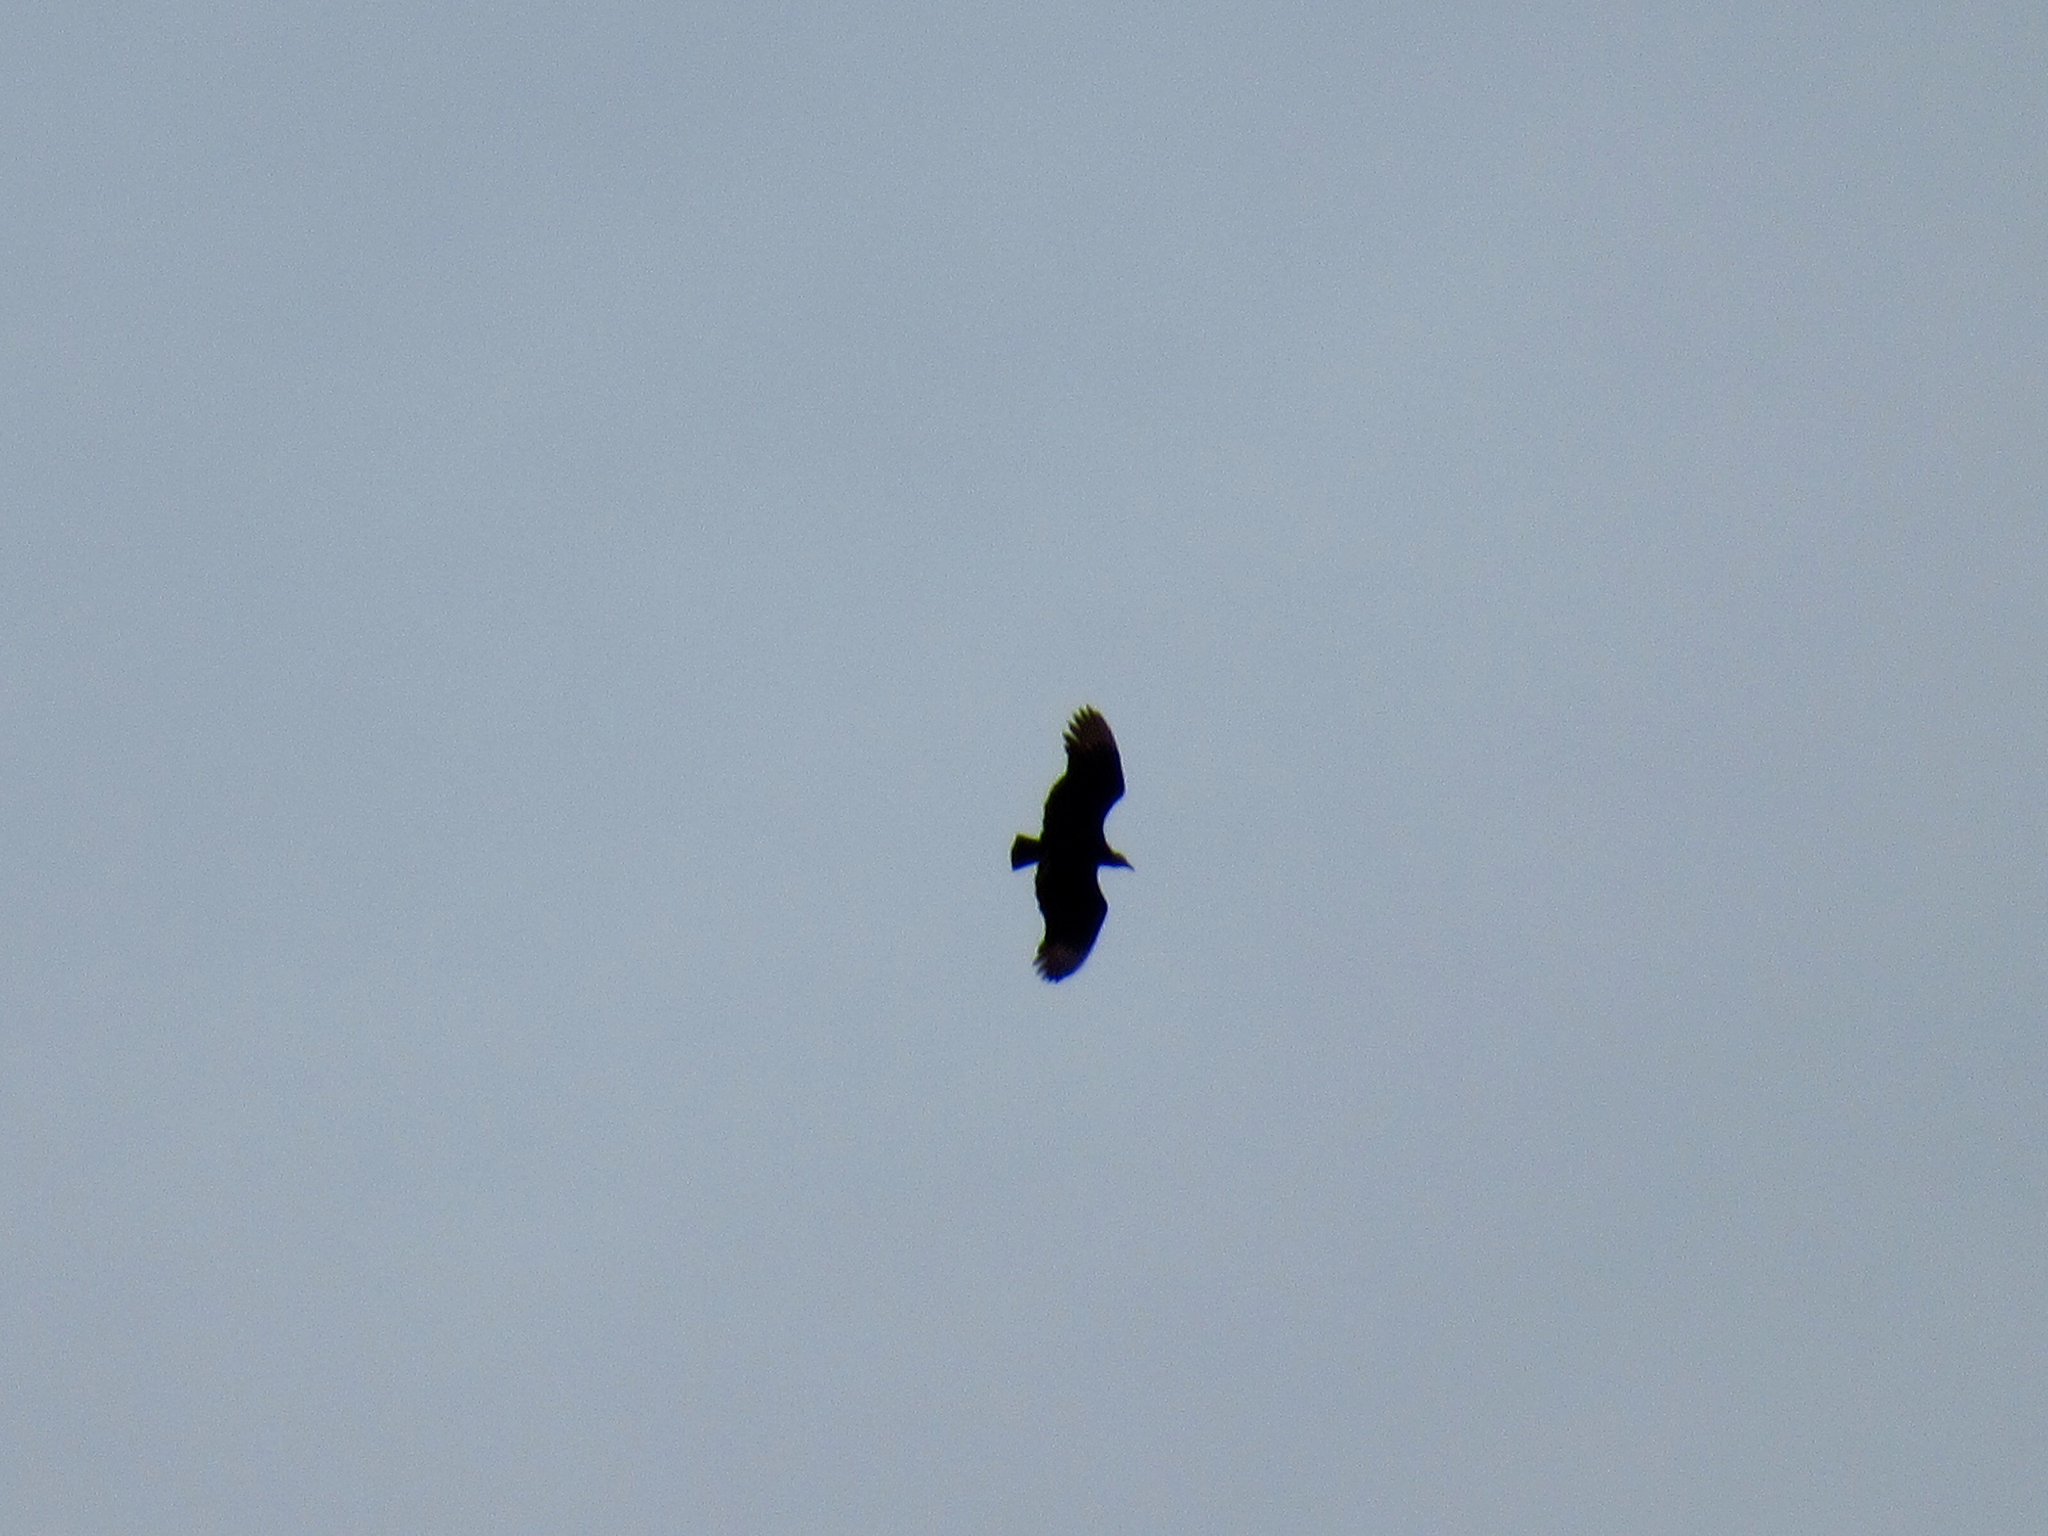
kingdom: Animalia
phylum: Chordata
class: Aves
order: Accipitriformes
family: Cathartidae
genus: Coragyps
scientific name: Coragyps atratus
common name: Black vulture
